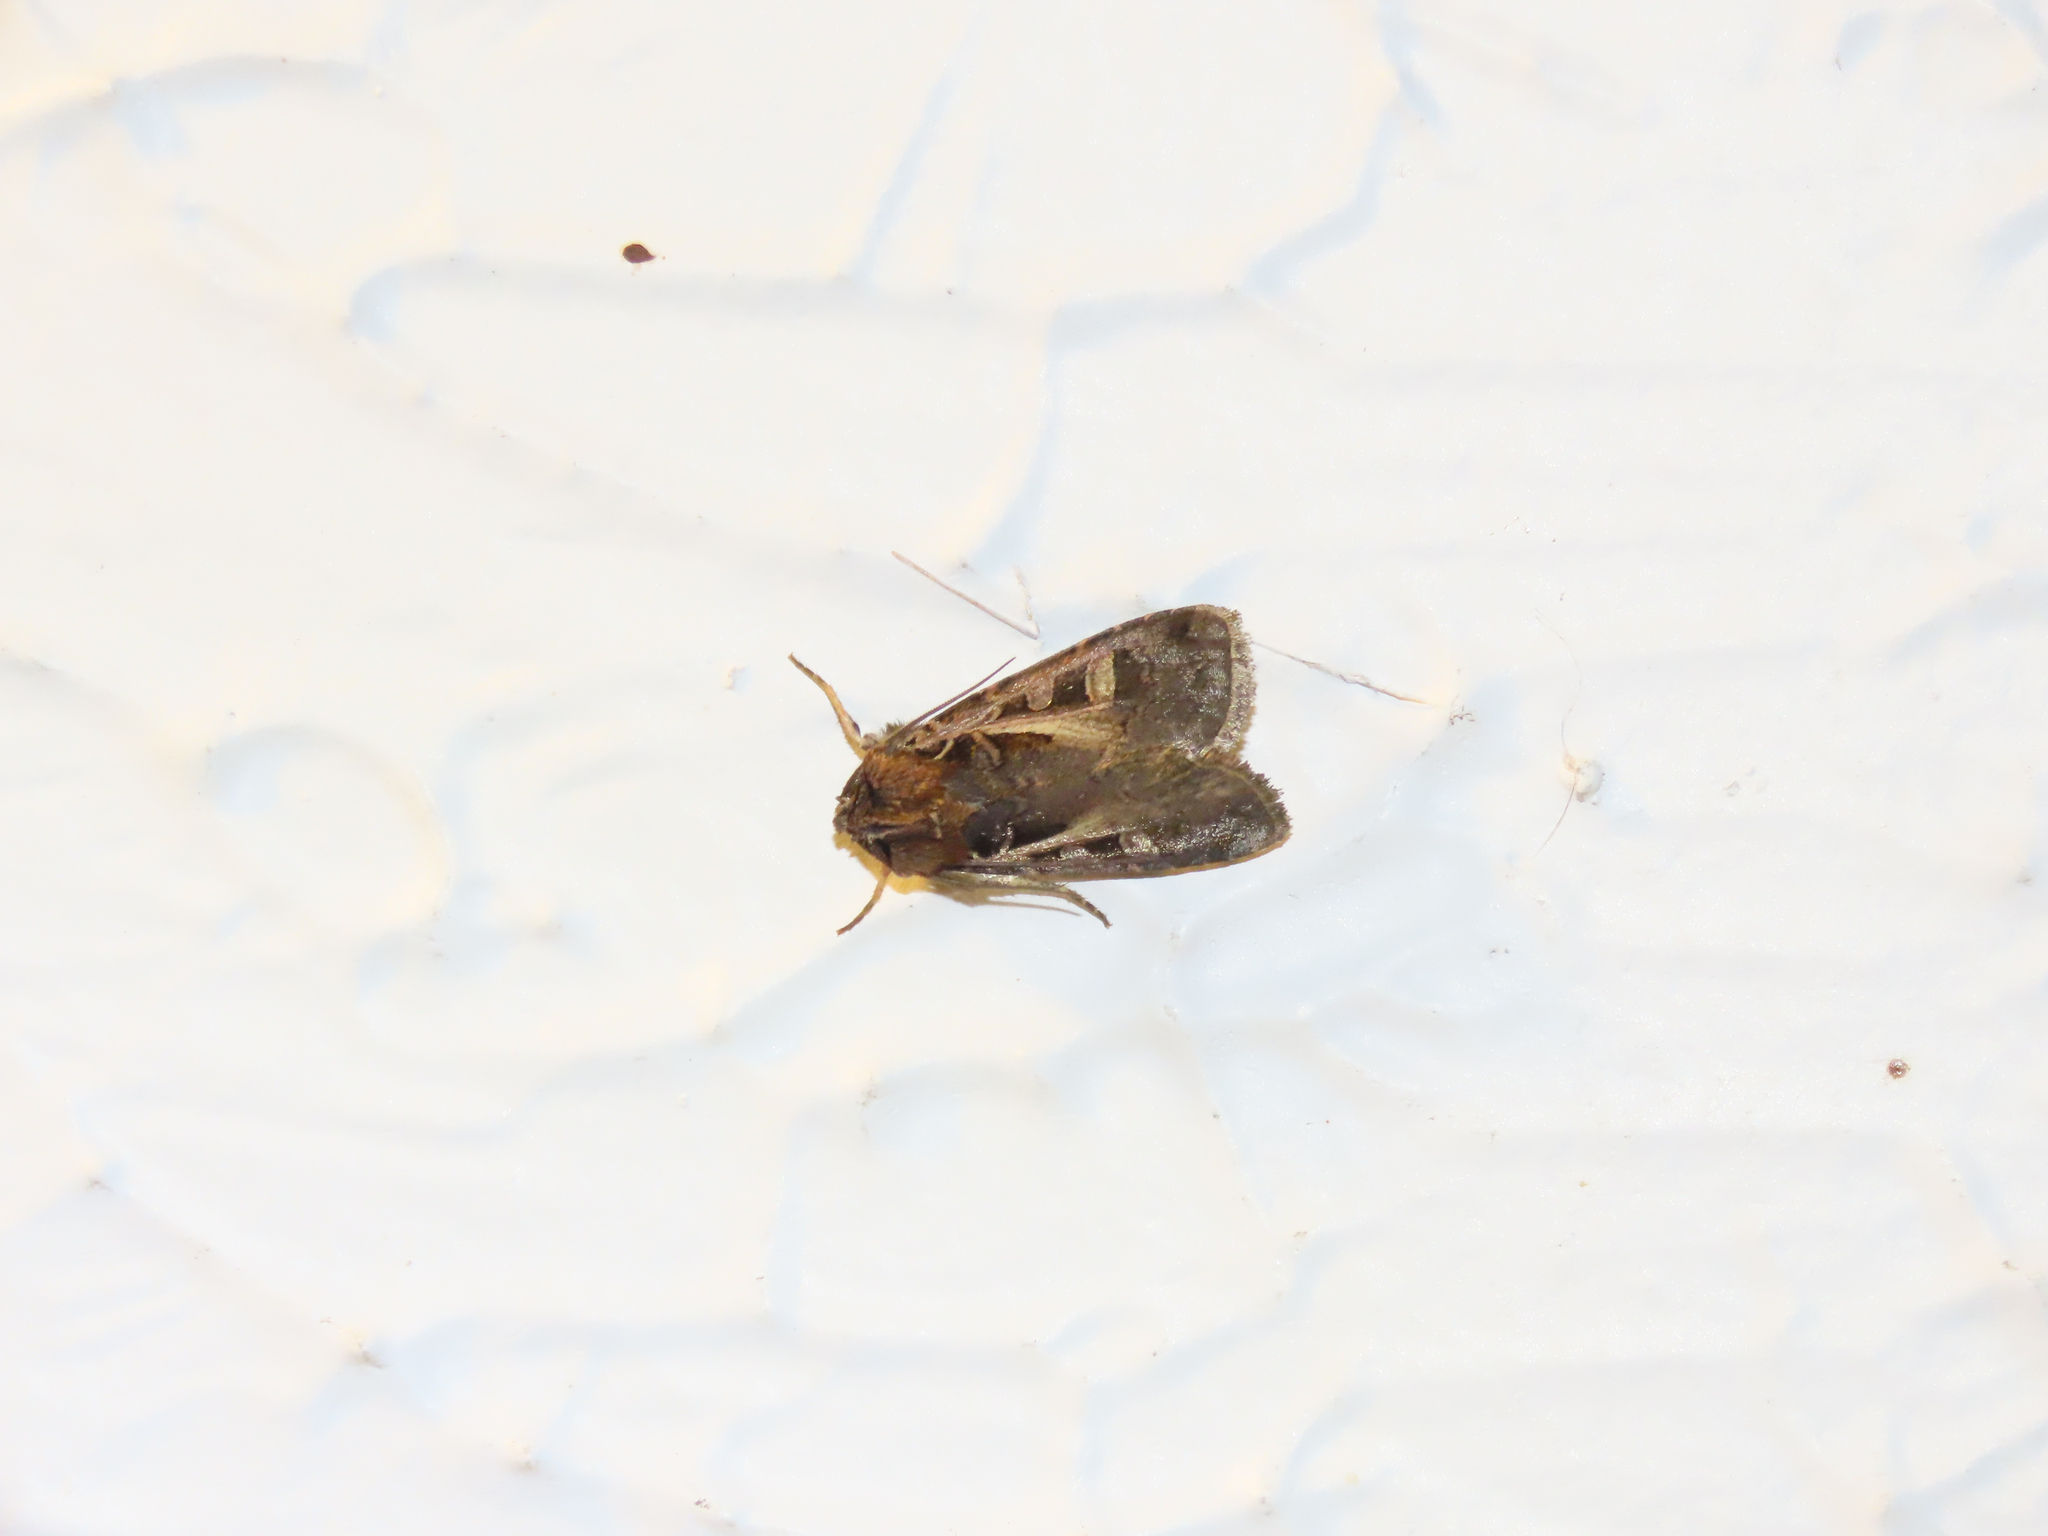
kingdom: Animalia
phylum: Arthropoda
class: Insecta
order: Lepidoptera
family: Noctuidae
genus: Feltia
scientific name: Feltia herilis
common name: Master's dart
